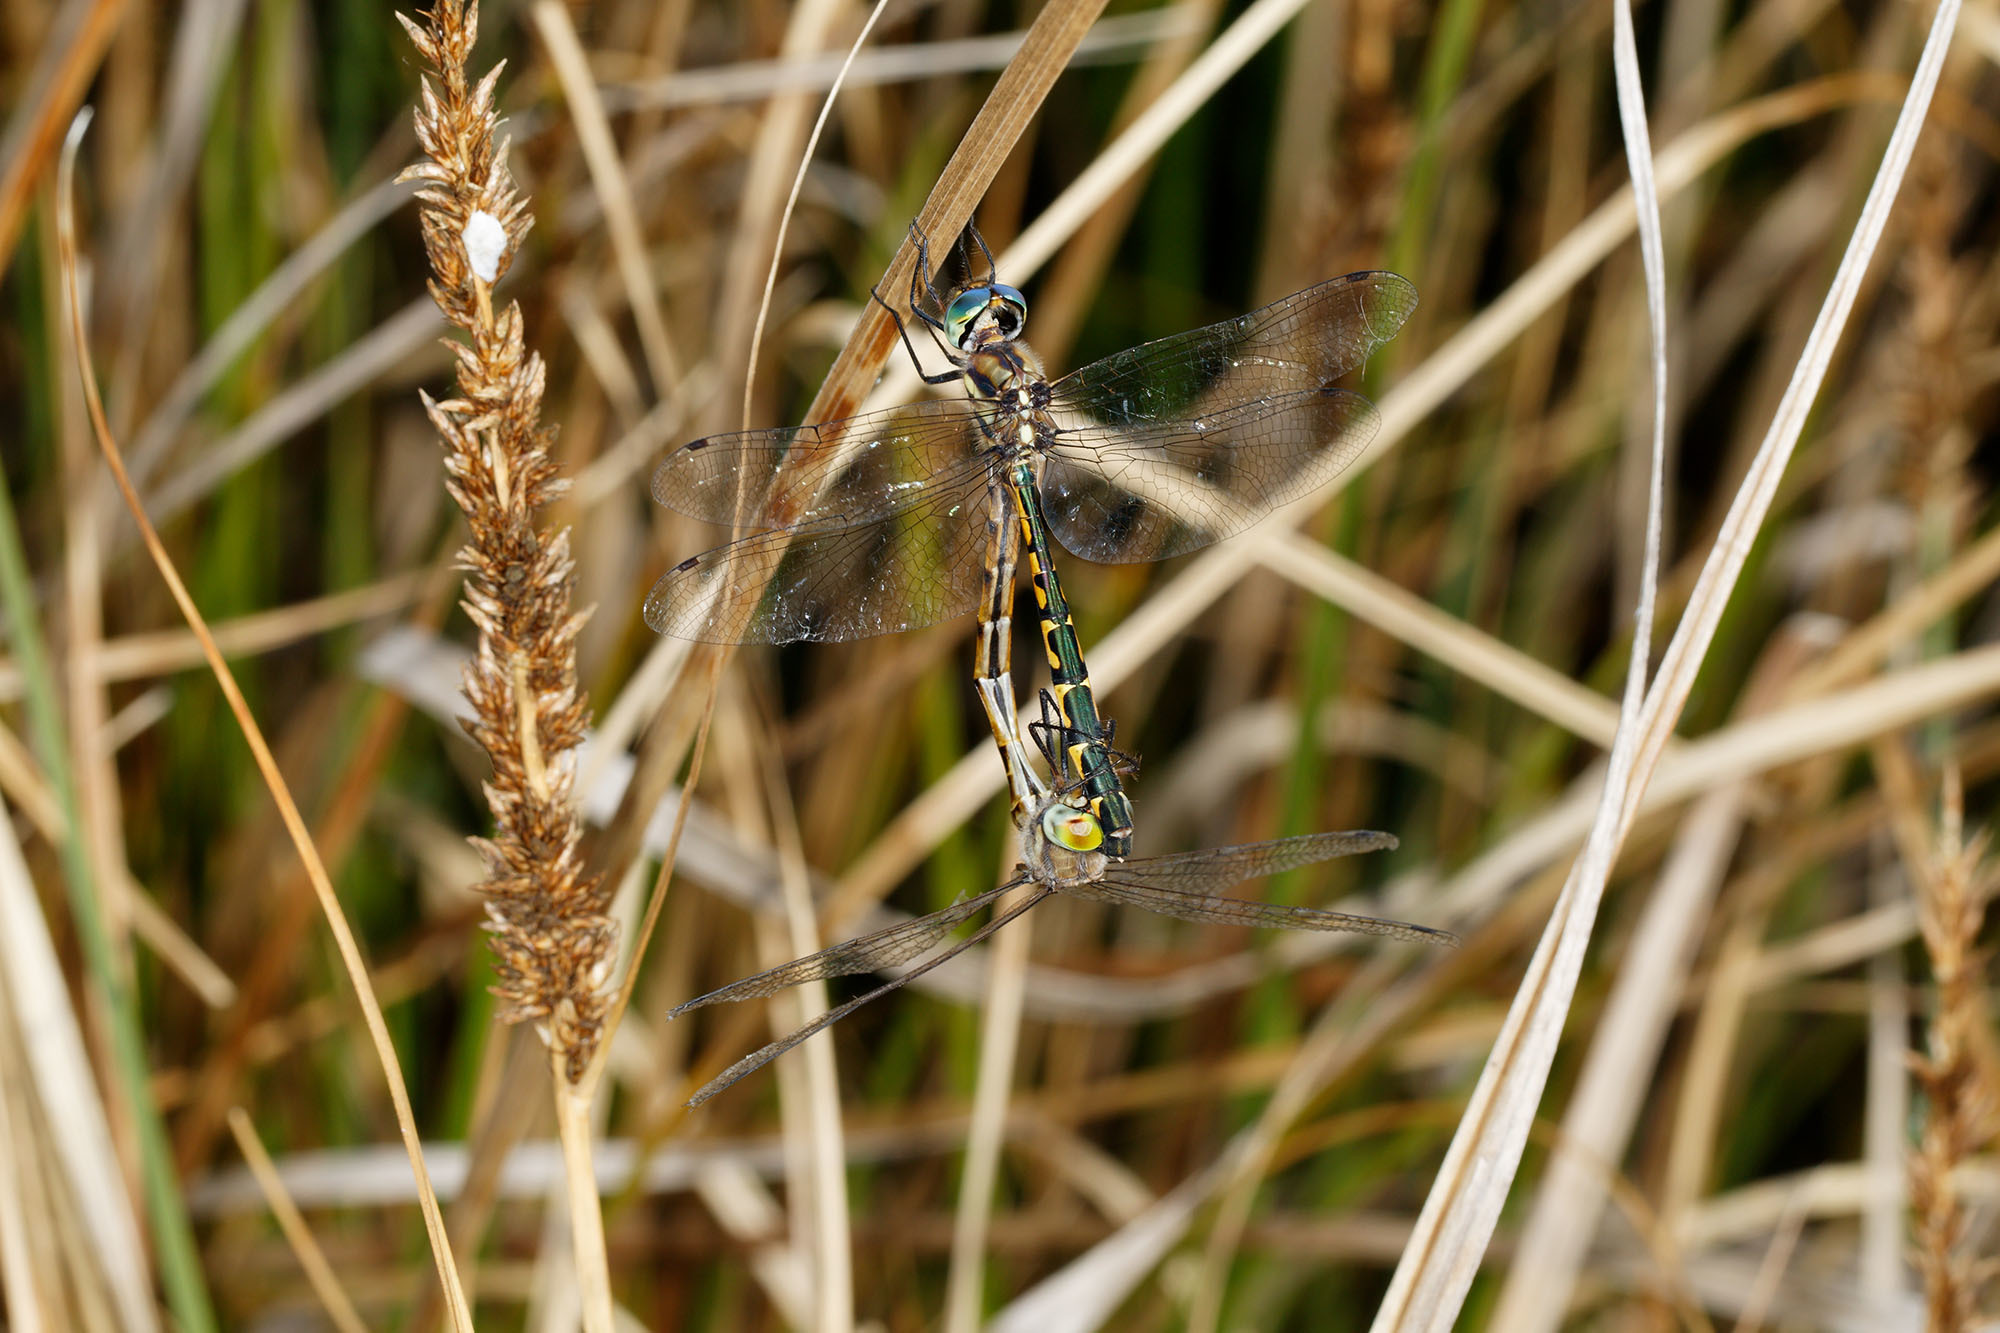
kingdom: Animalia
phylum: Arthropoda
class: Insecta
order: Odonata
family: Corduliidae
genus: Hemicordulia
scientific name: Hemicordulia australiae
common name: Sentry dragonfly
